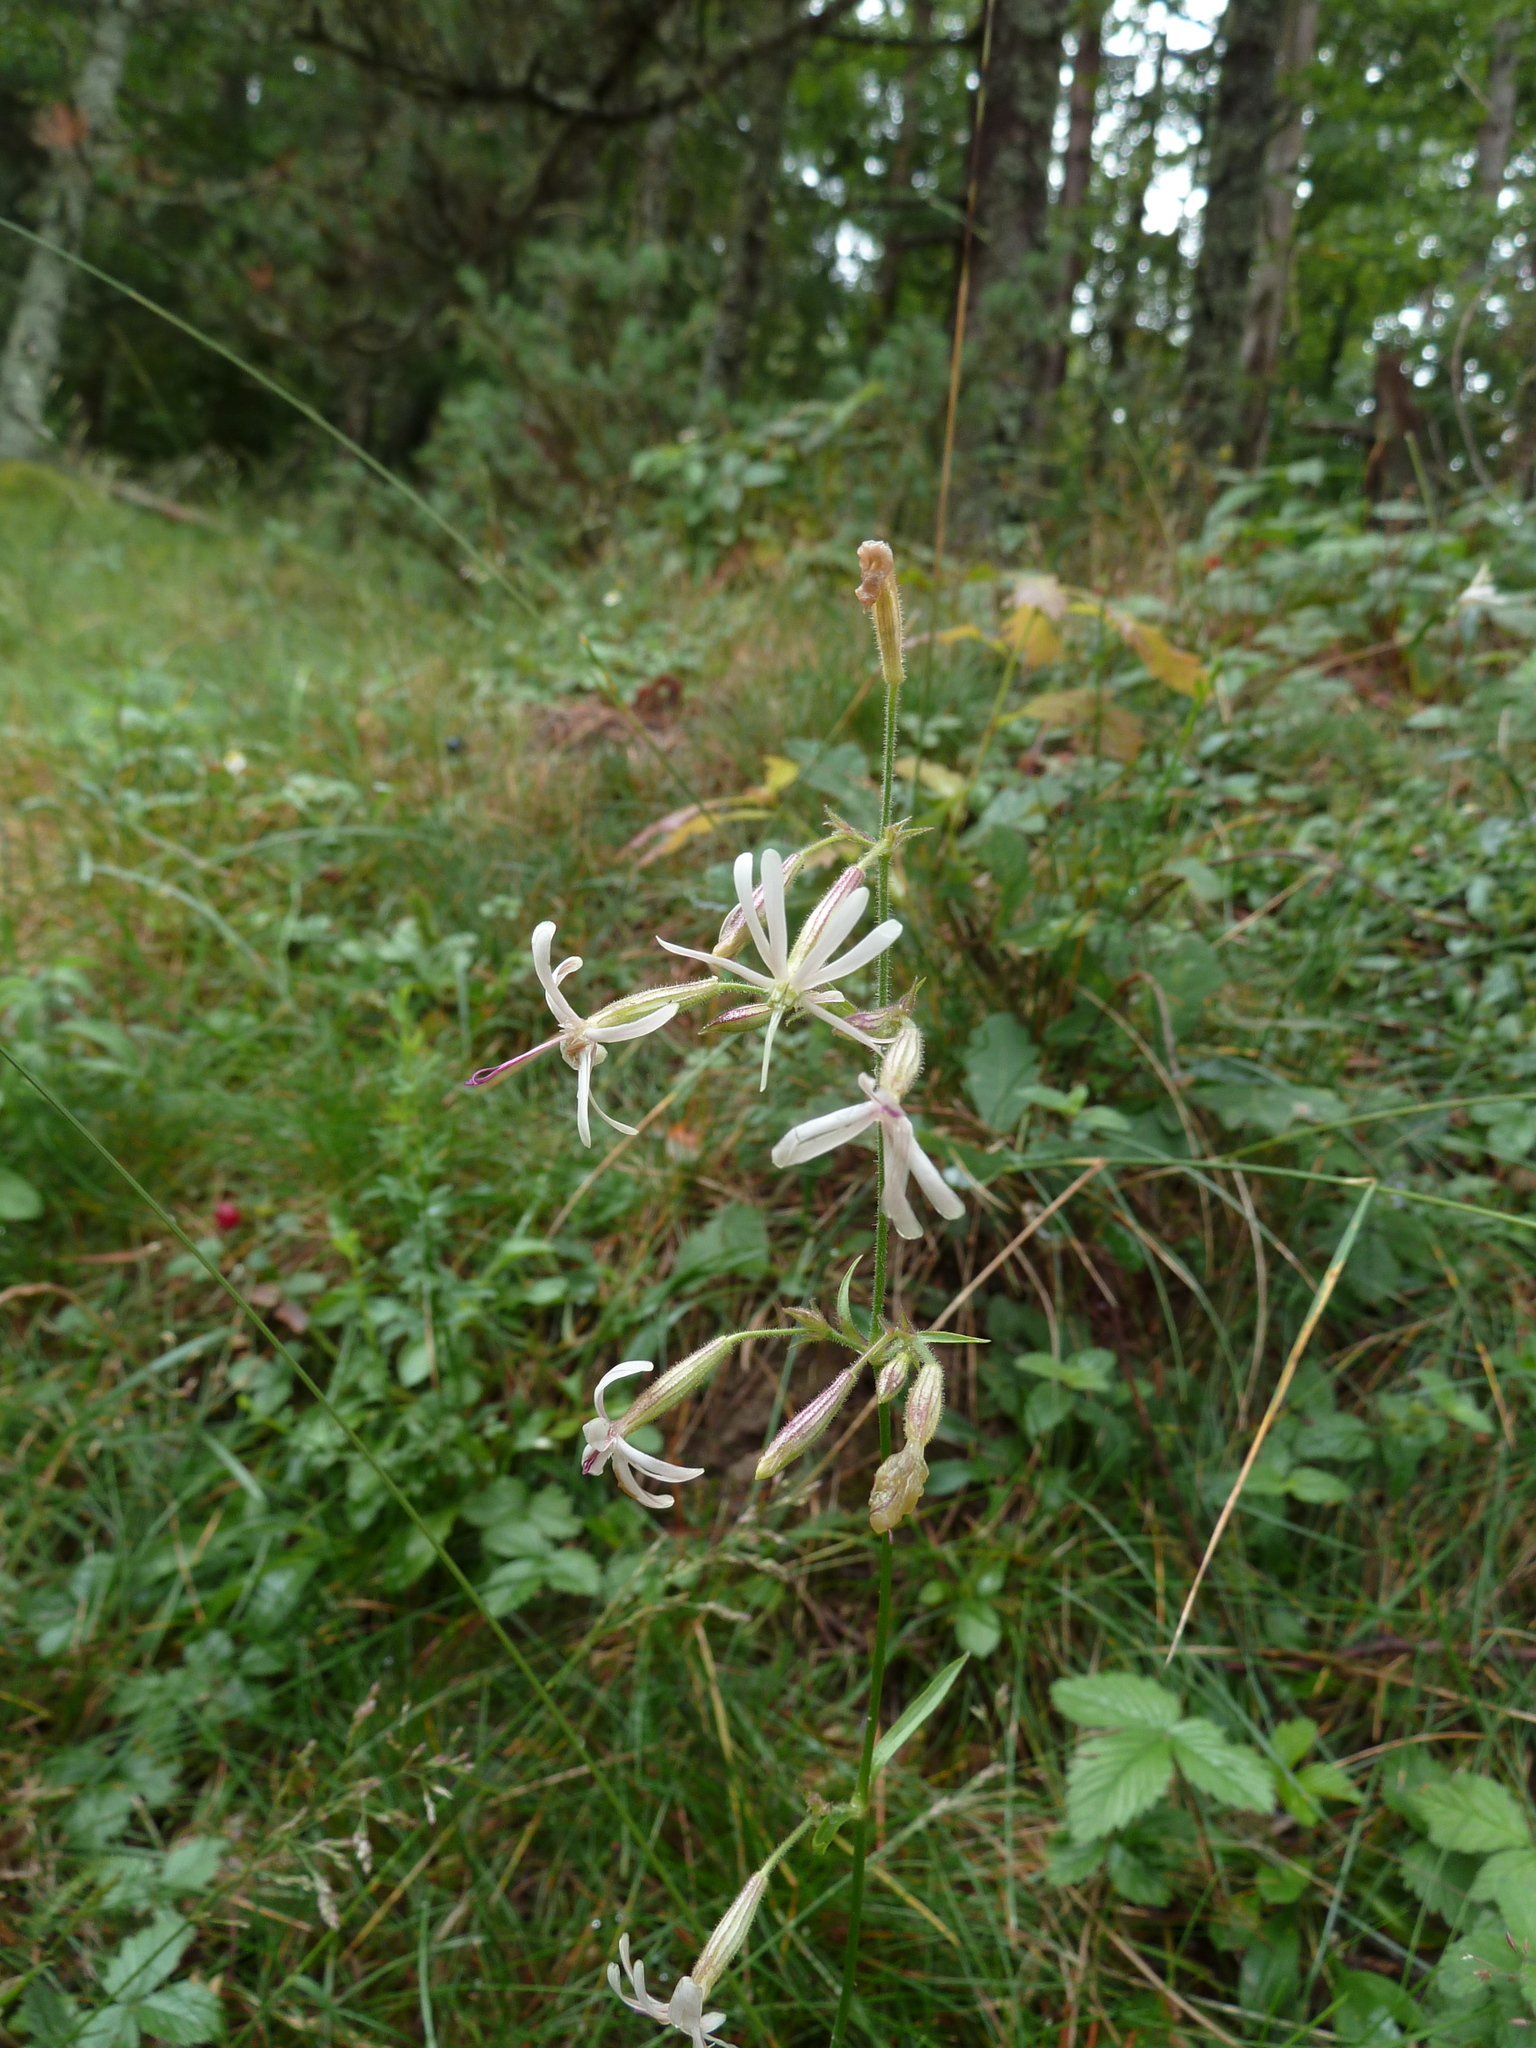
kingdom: Plantae
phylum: Tracheophyta
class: Magnoliopsida
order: Caryophyllales
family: Caryophyllaceae
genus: Silene
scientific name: Silene nutans
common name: Nottingham catchfly
